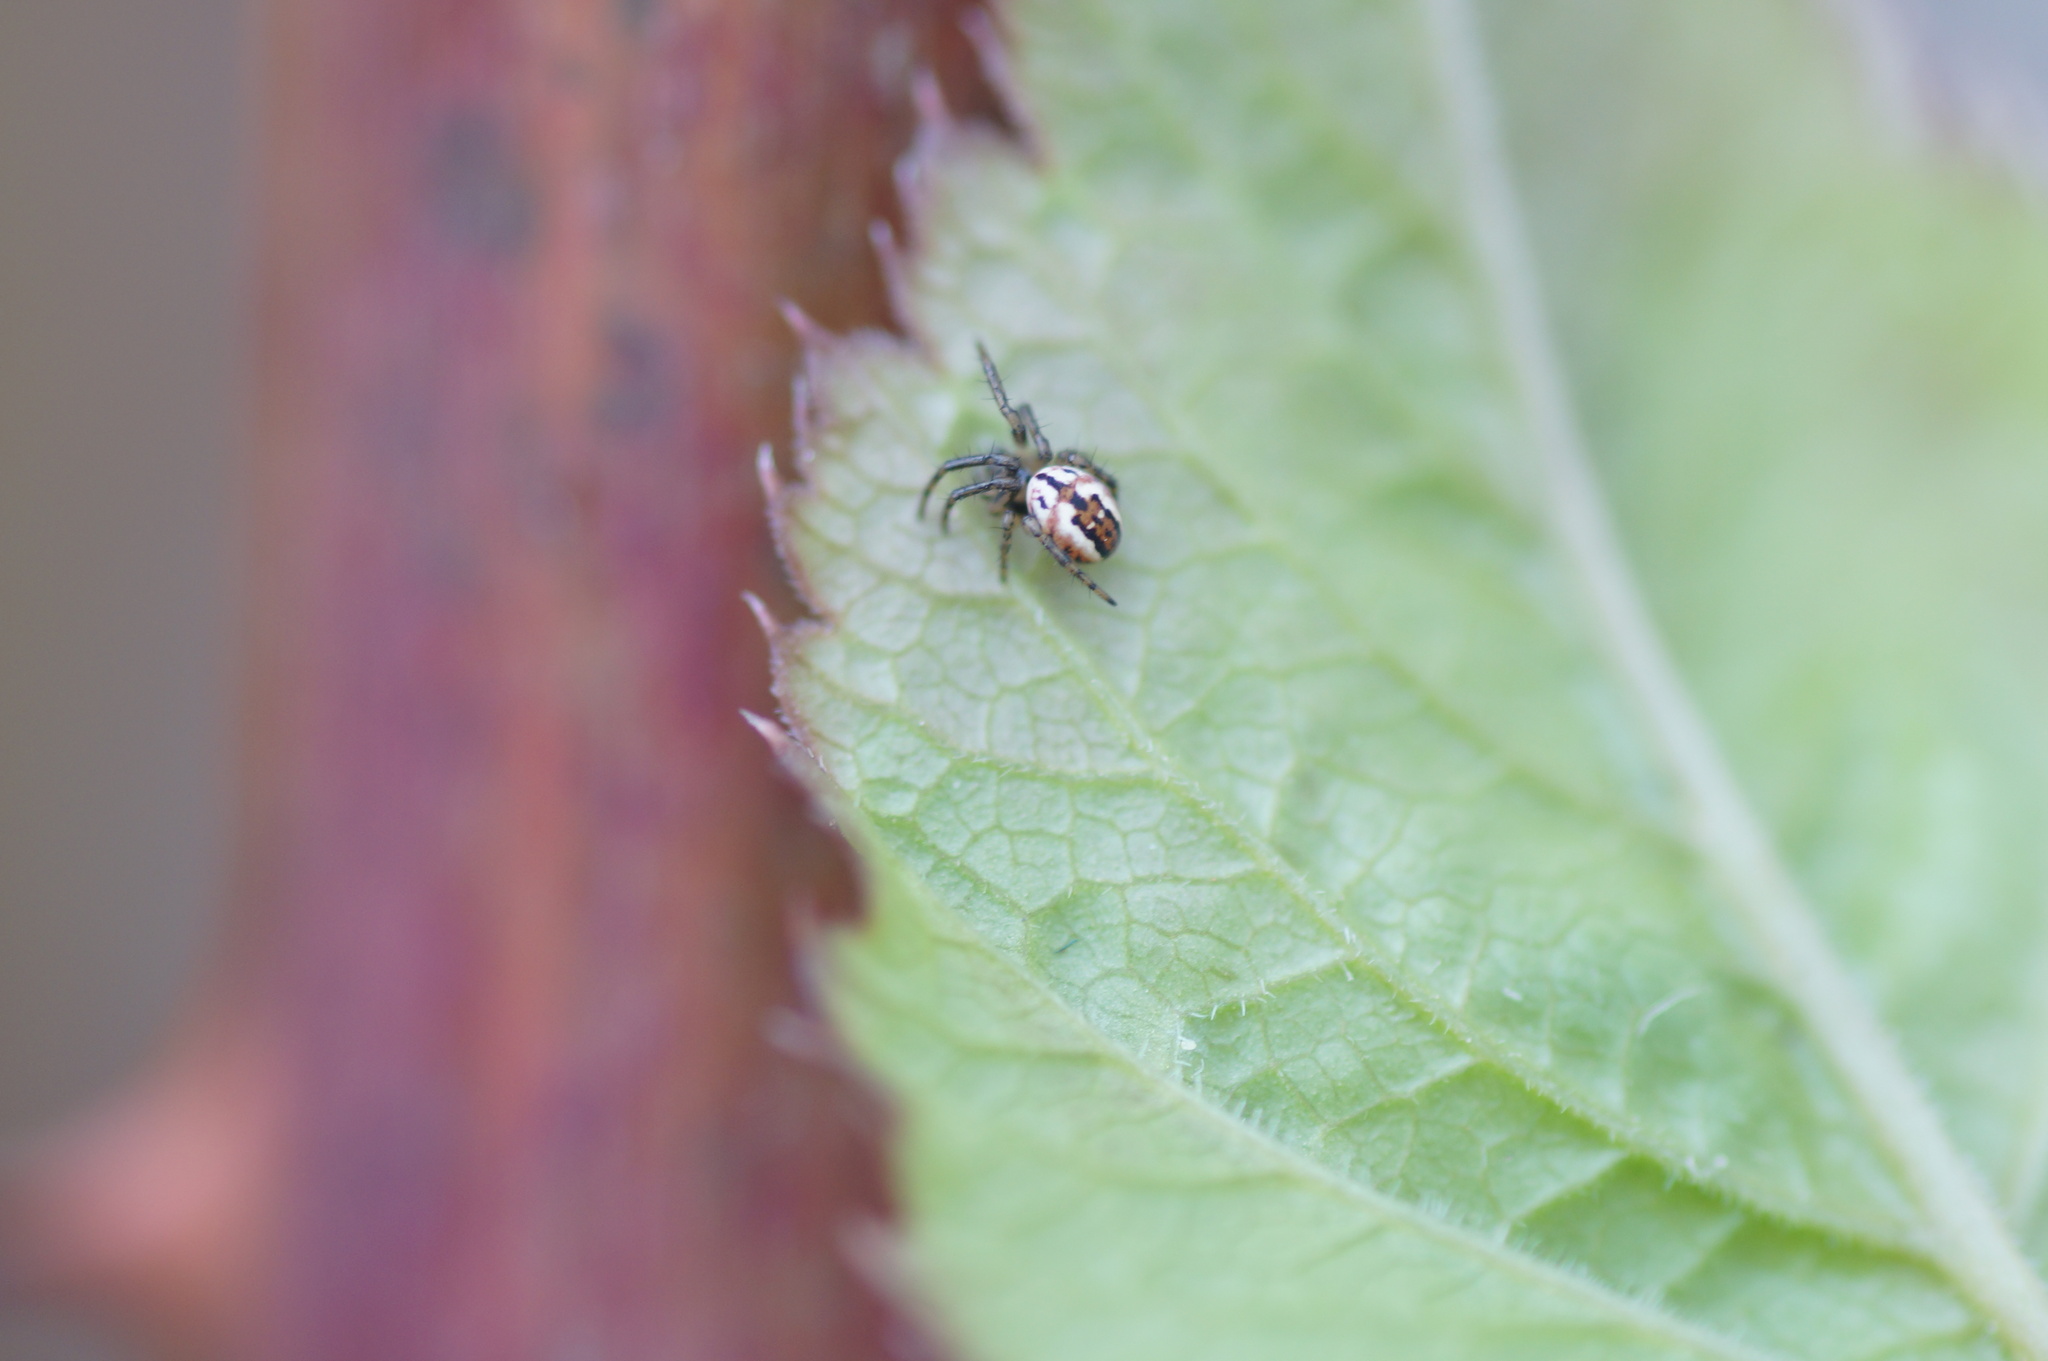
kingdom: Animalia
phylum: Arthropoda
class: Arachnida
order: Araneae
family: Araneidae
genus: Mangora
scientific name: Mangora acalypha
